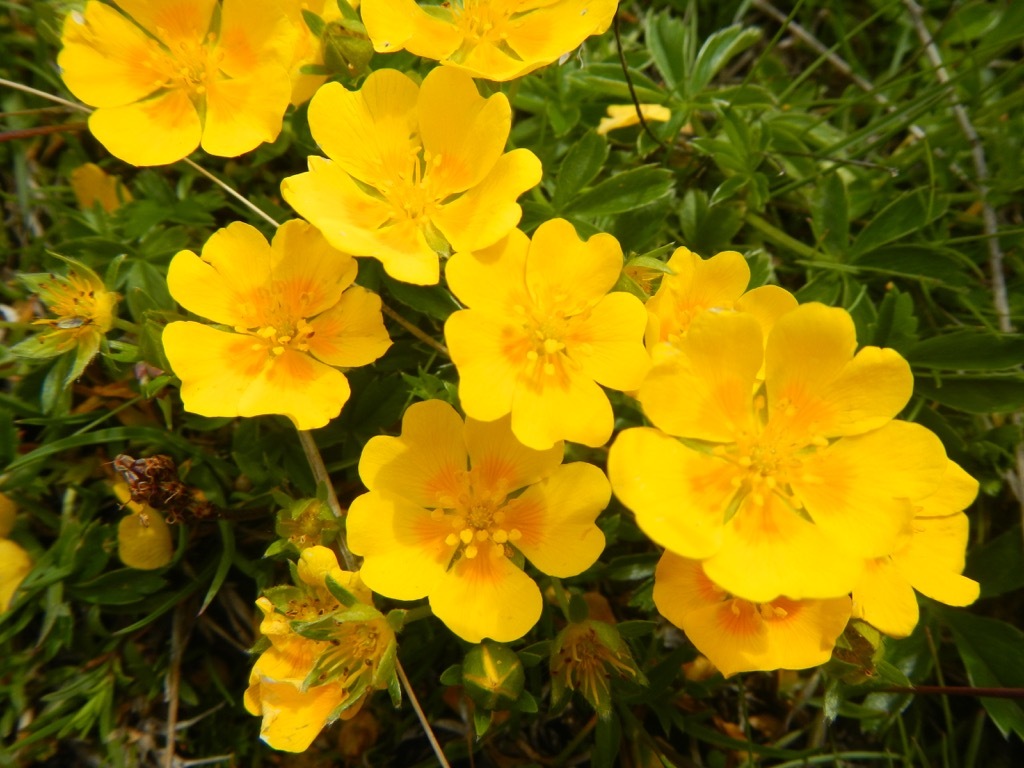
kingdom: Plantae
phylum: Tracheophyta
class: Magnoliopsida
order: Rosales
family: Rosaceae
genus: Potentilla
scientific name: Potentilla aurea
